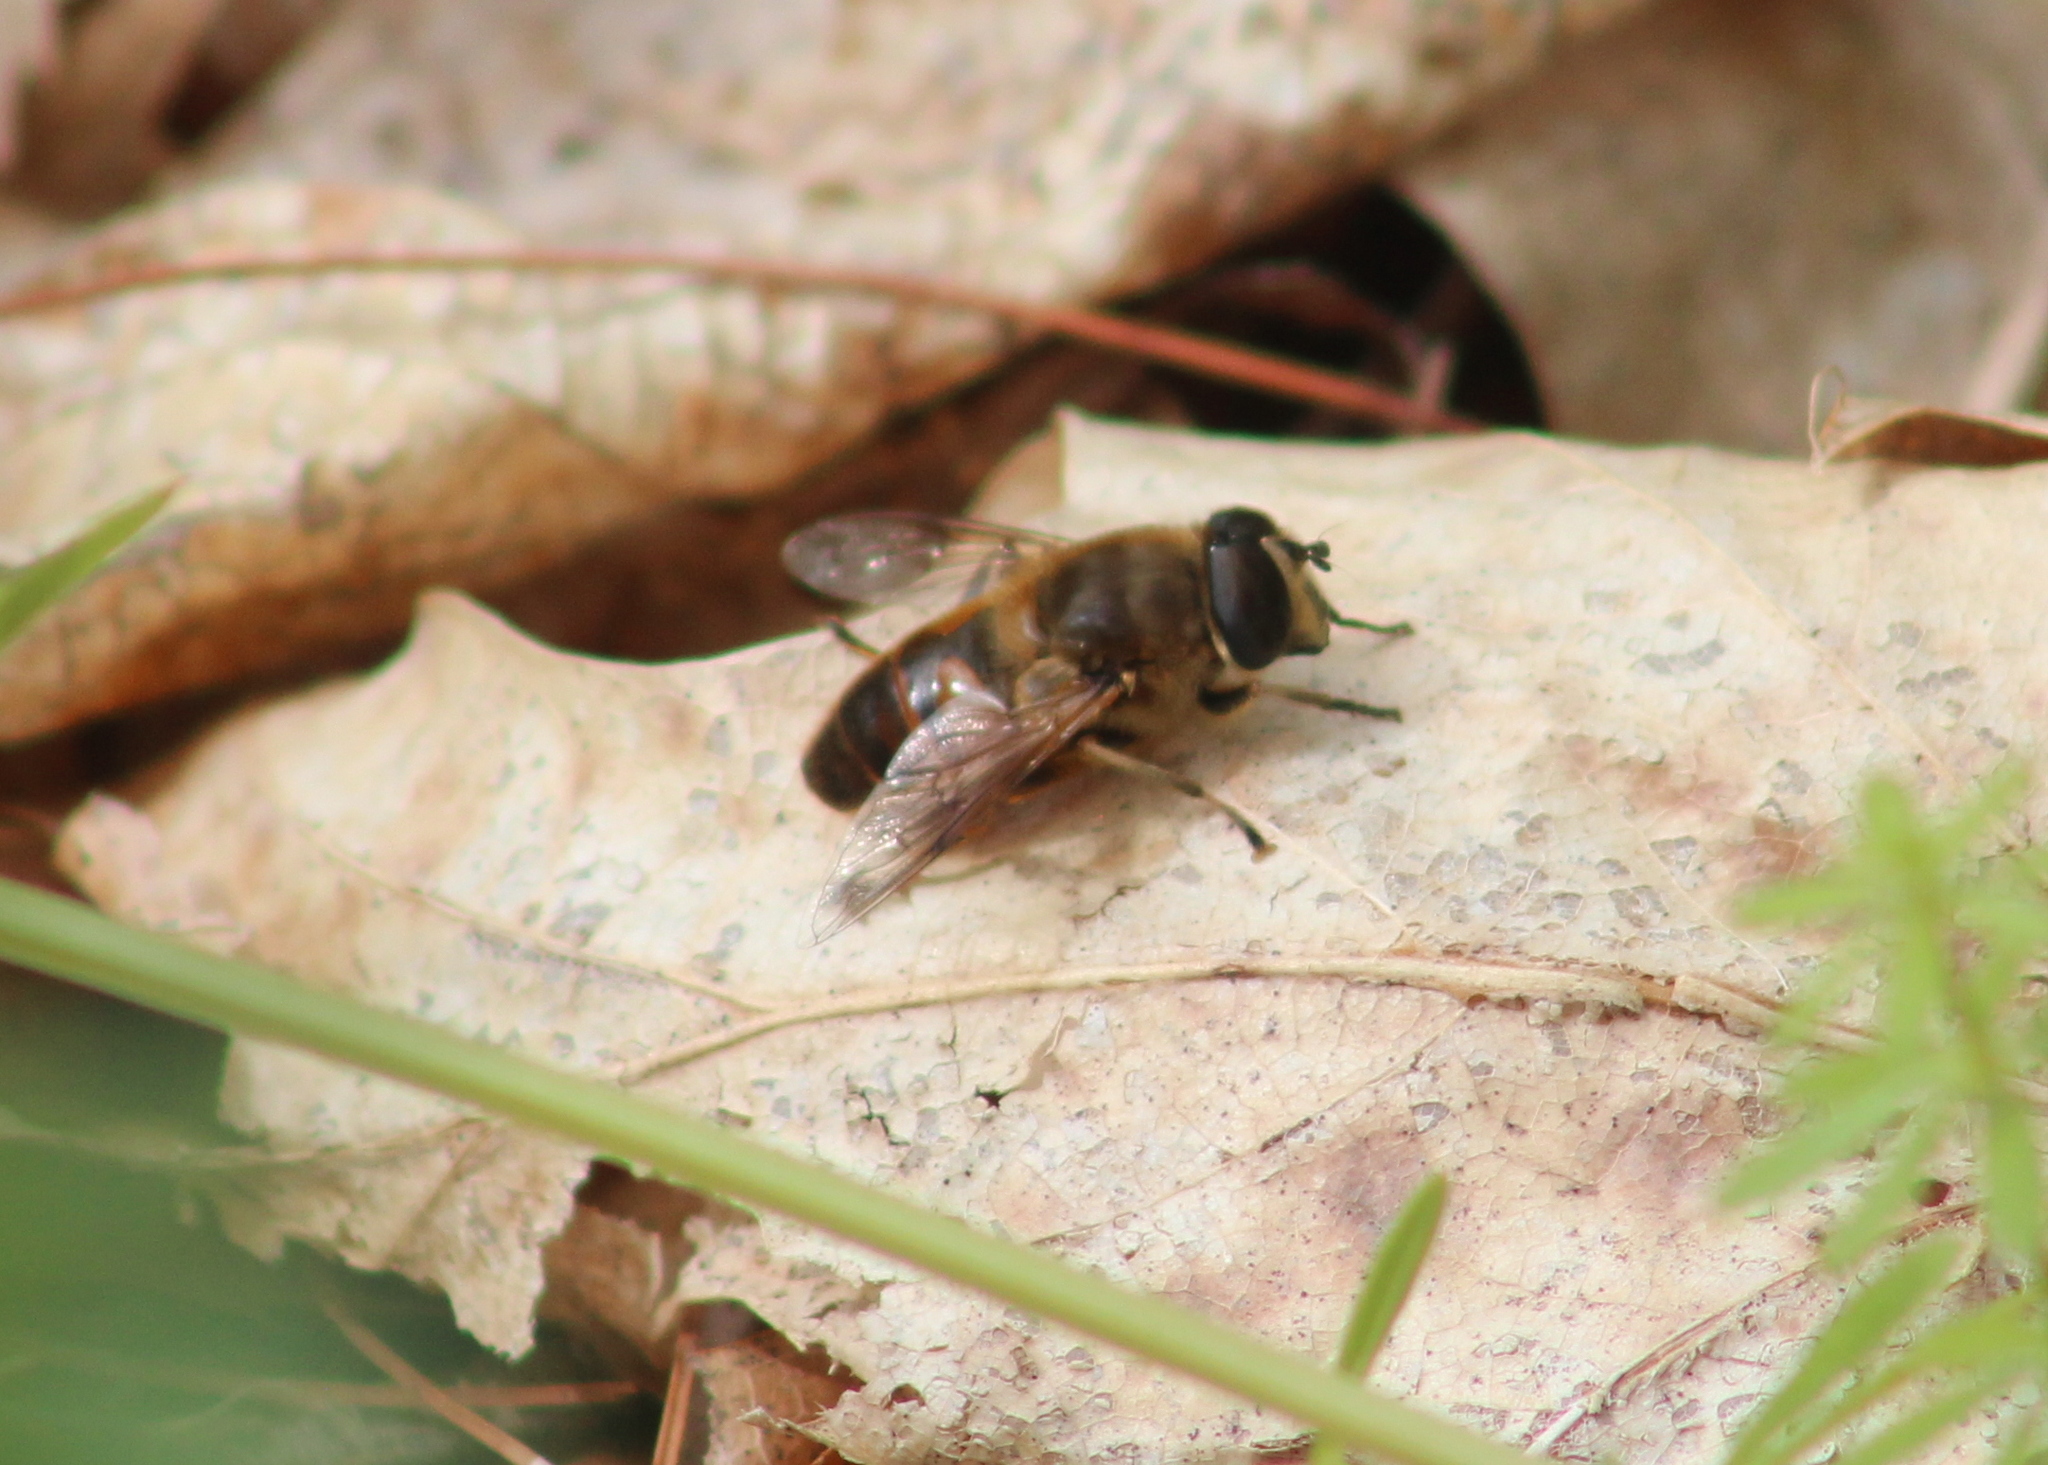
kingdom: Animalia
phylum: Arthropoda
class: Insecta
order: Diptera
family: Syrphidae
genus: Eristalis
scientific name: Eristalis tenax
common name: Drone fly
